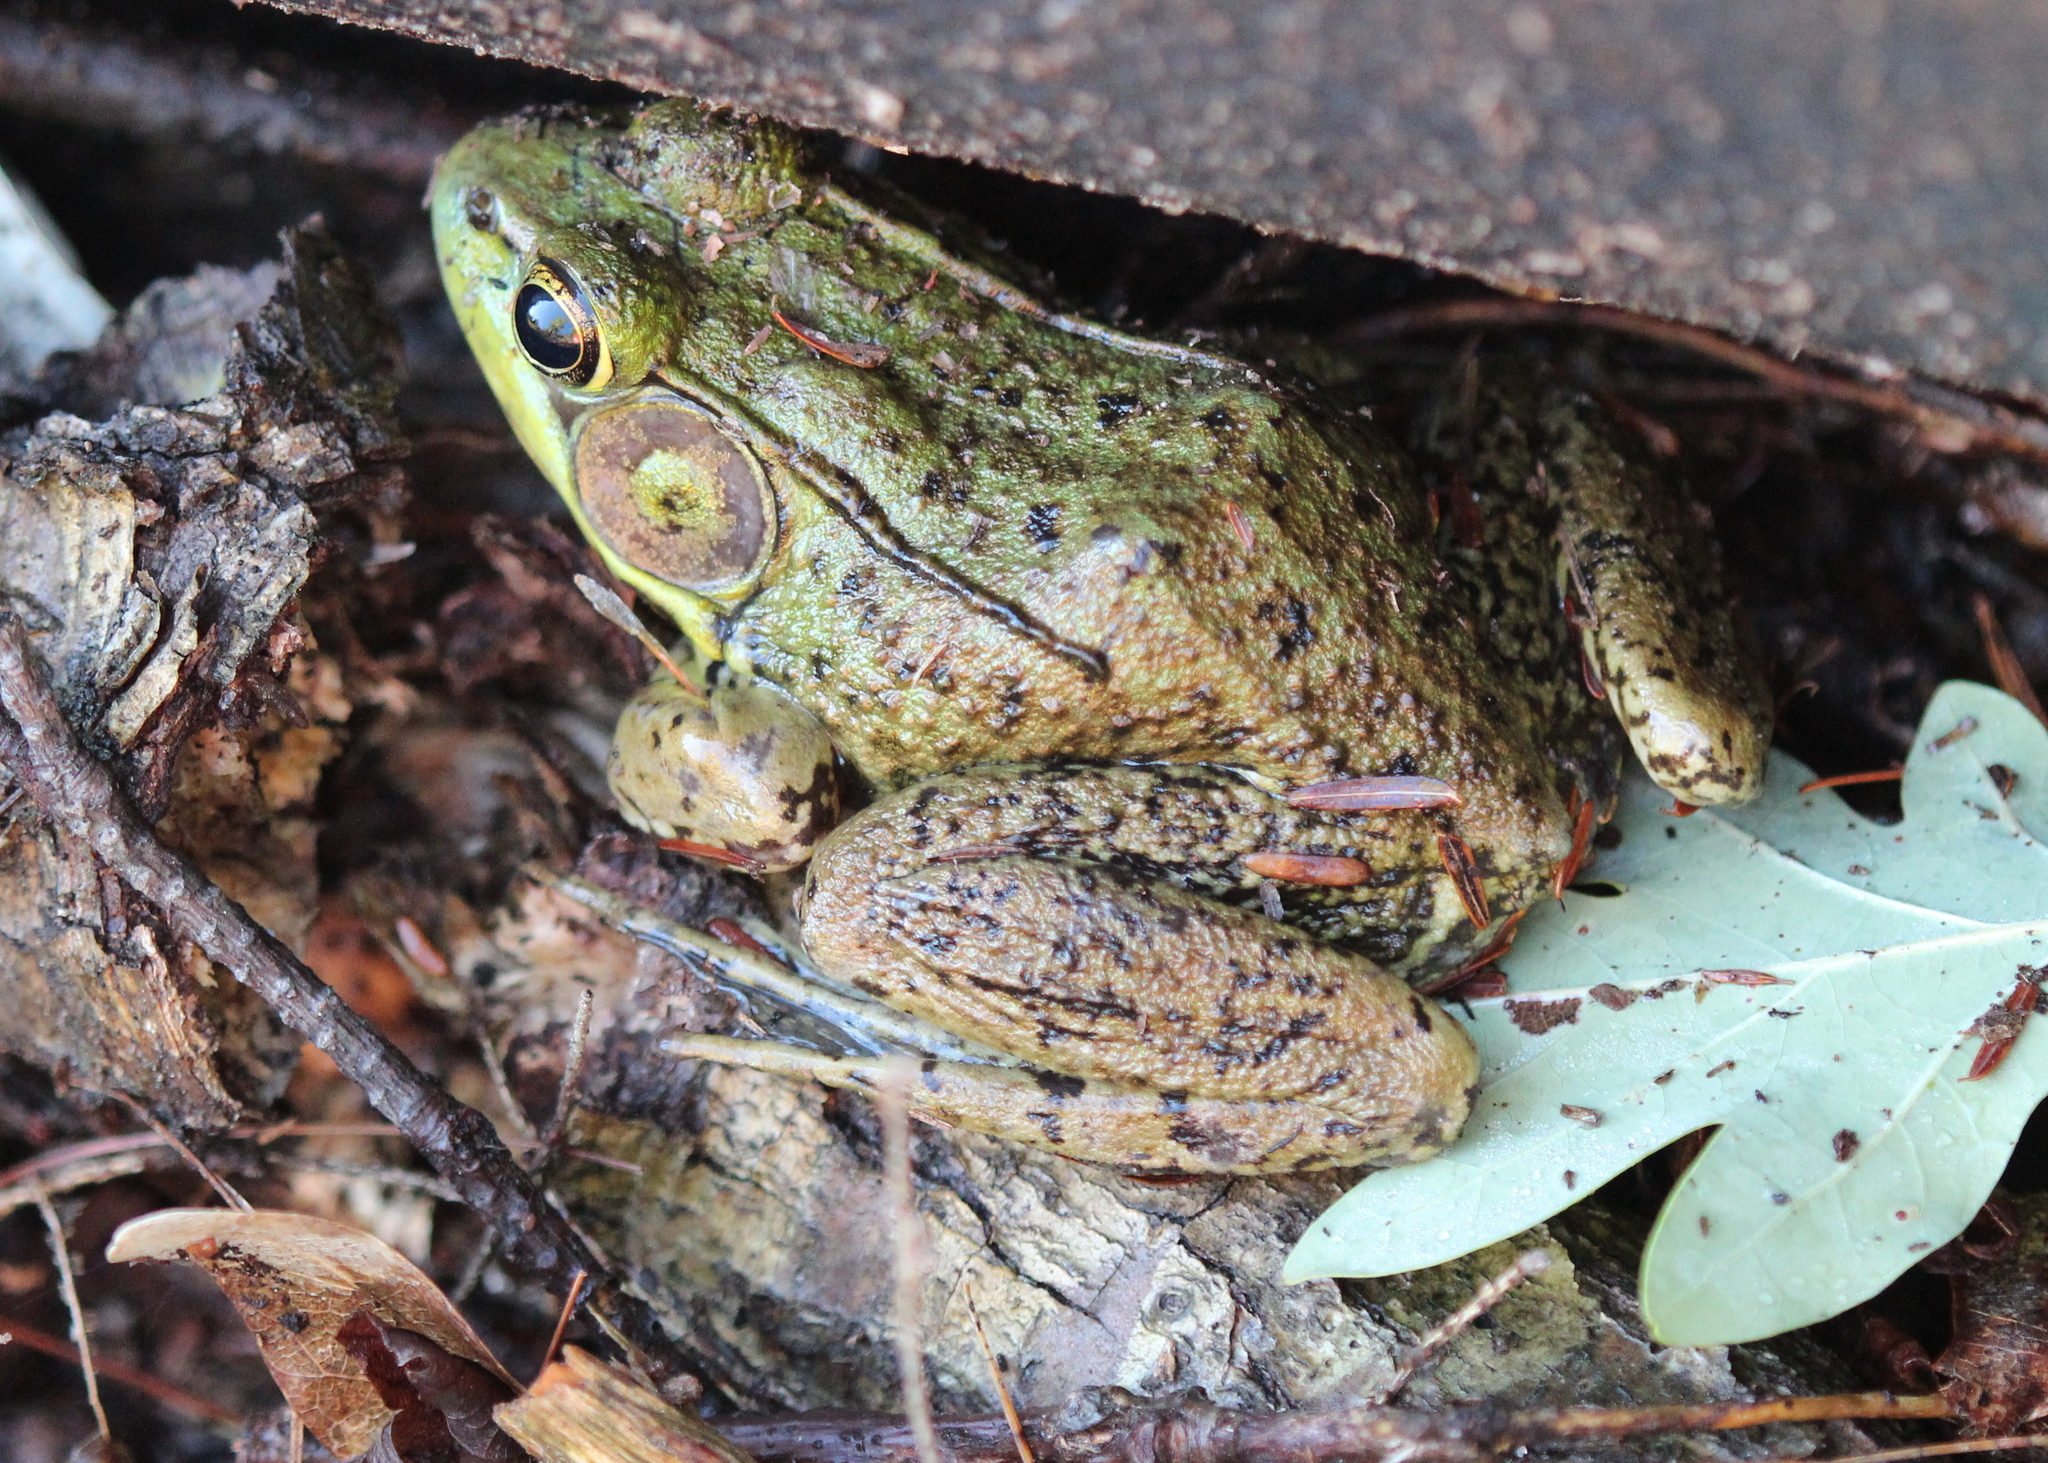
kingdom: Animalia
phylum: Chordata
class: Amphibia
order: Anura
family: Ranidae
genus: Lithobates
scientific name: Lithobates clamitans
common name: Green frog
